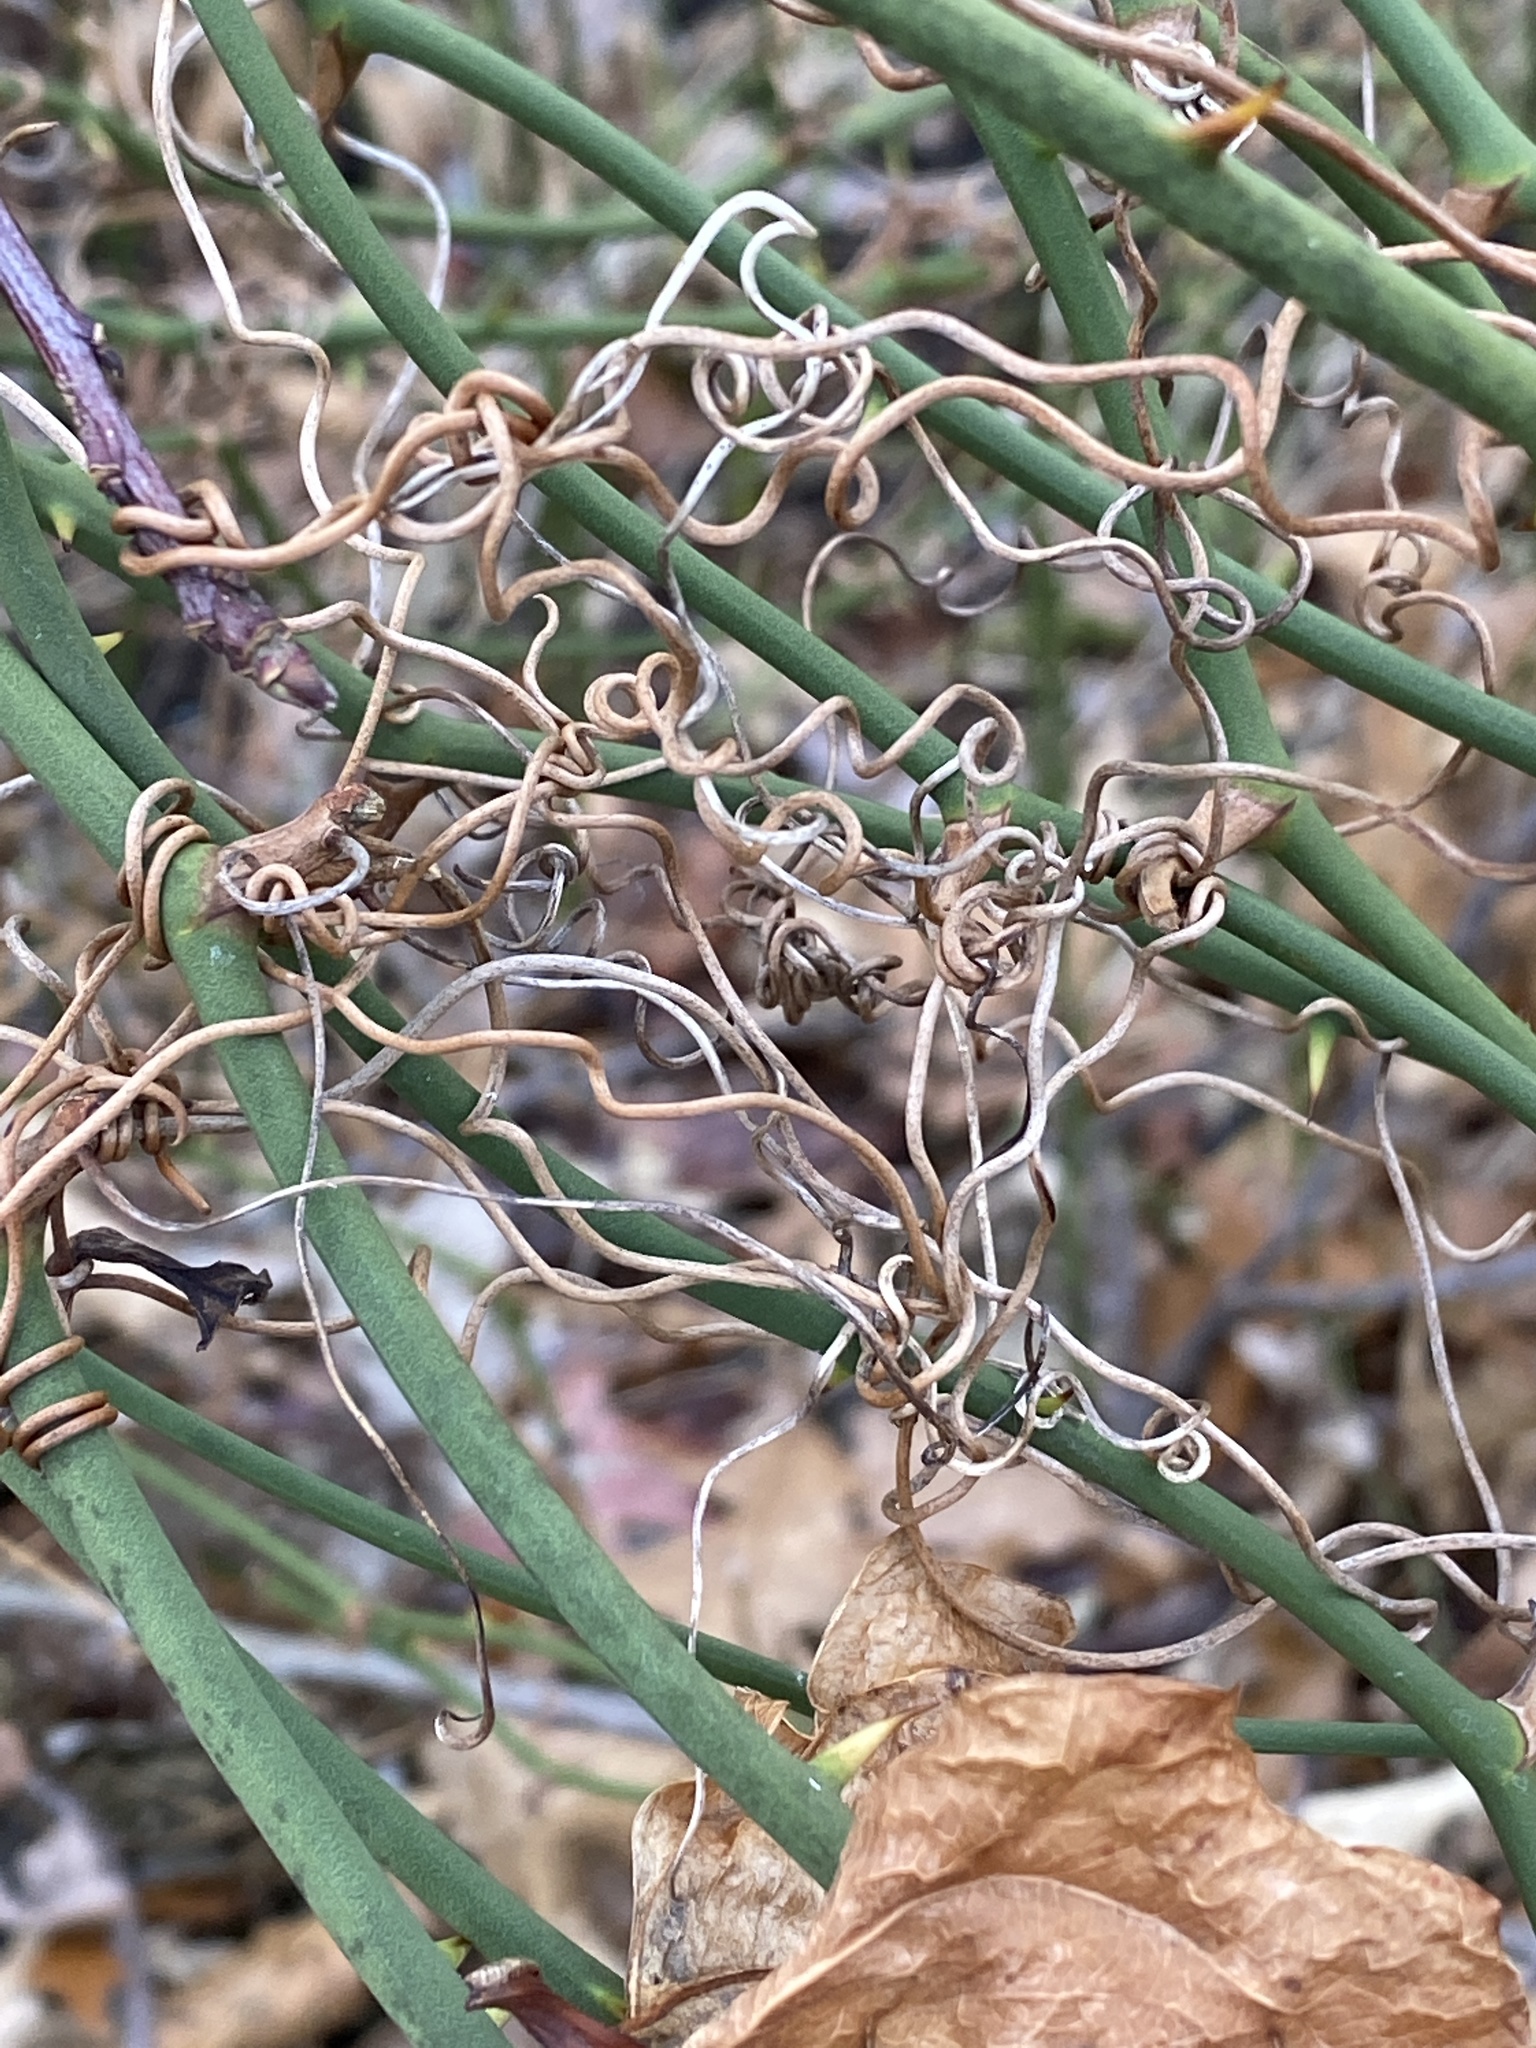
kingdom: Plantae
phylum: Tracheophyta
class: Liliopsida
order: Liliales
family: Smilacaceae
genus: Smilax
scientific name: Smilax rotundifolia
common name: Bullbriar
